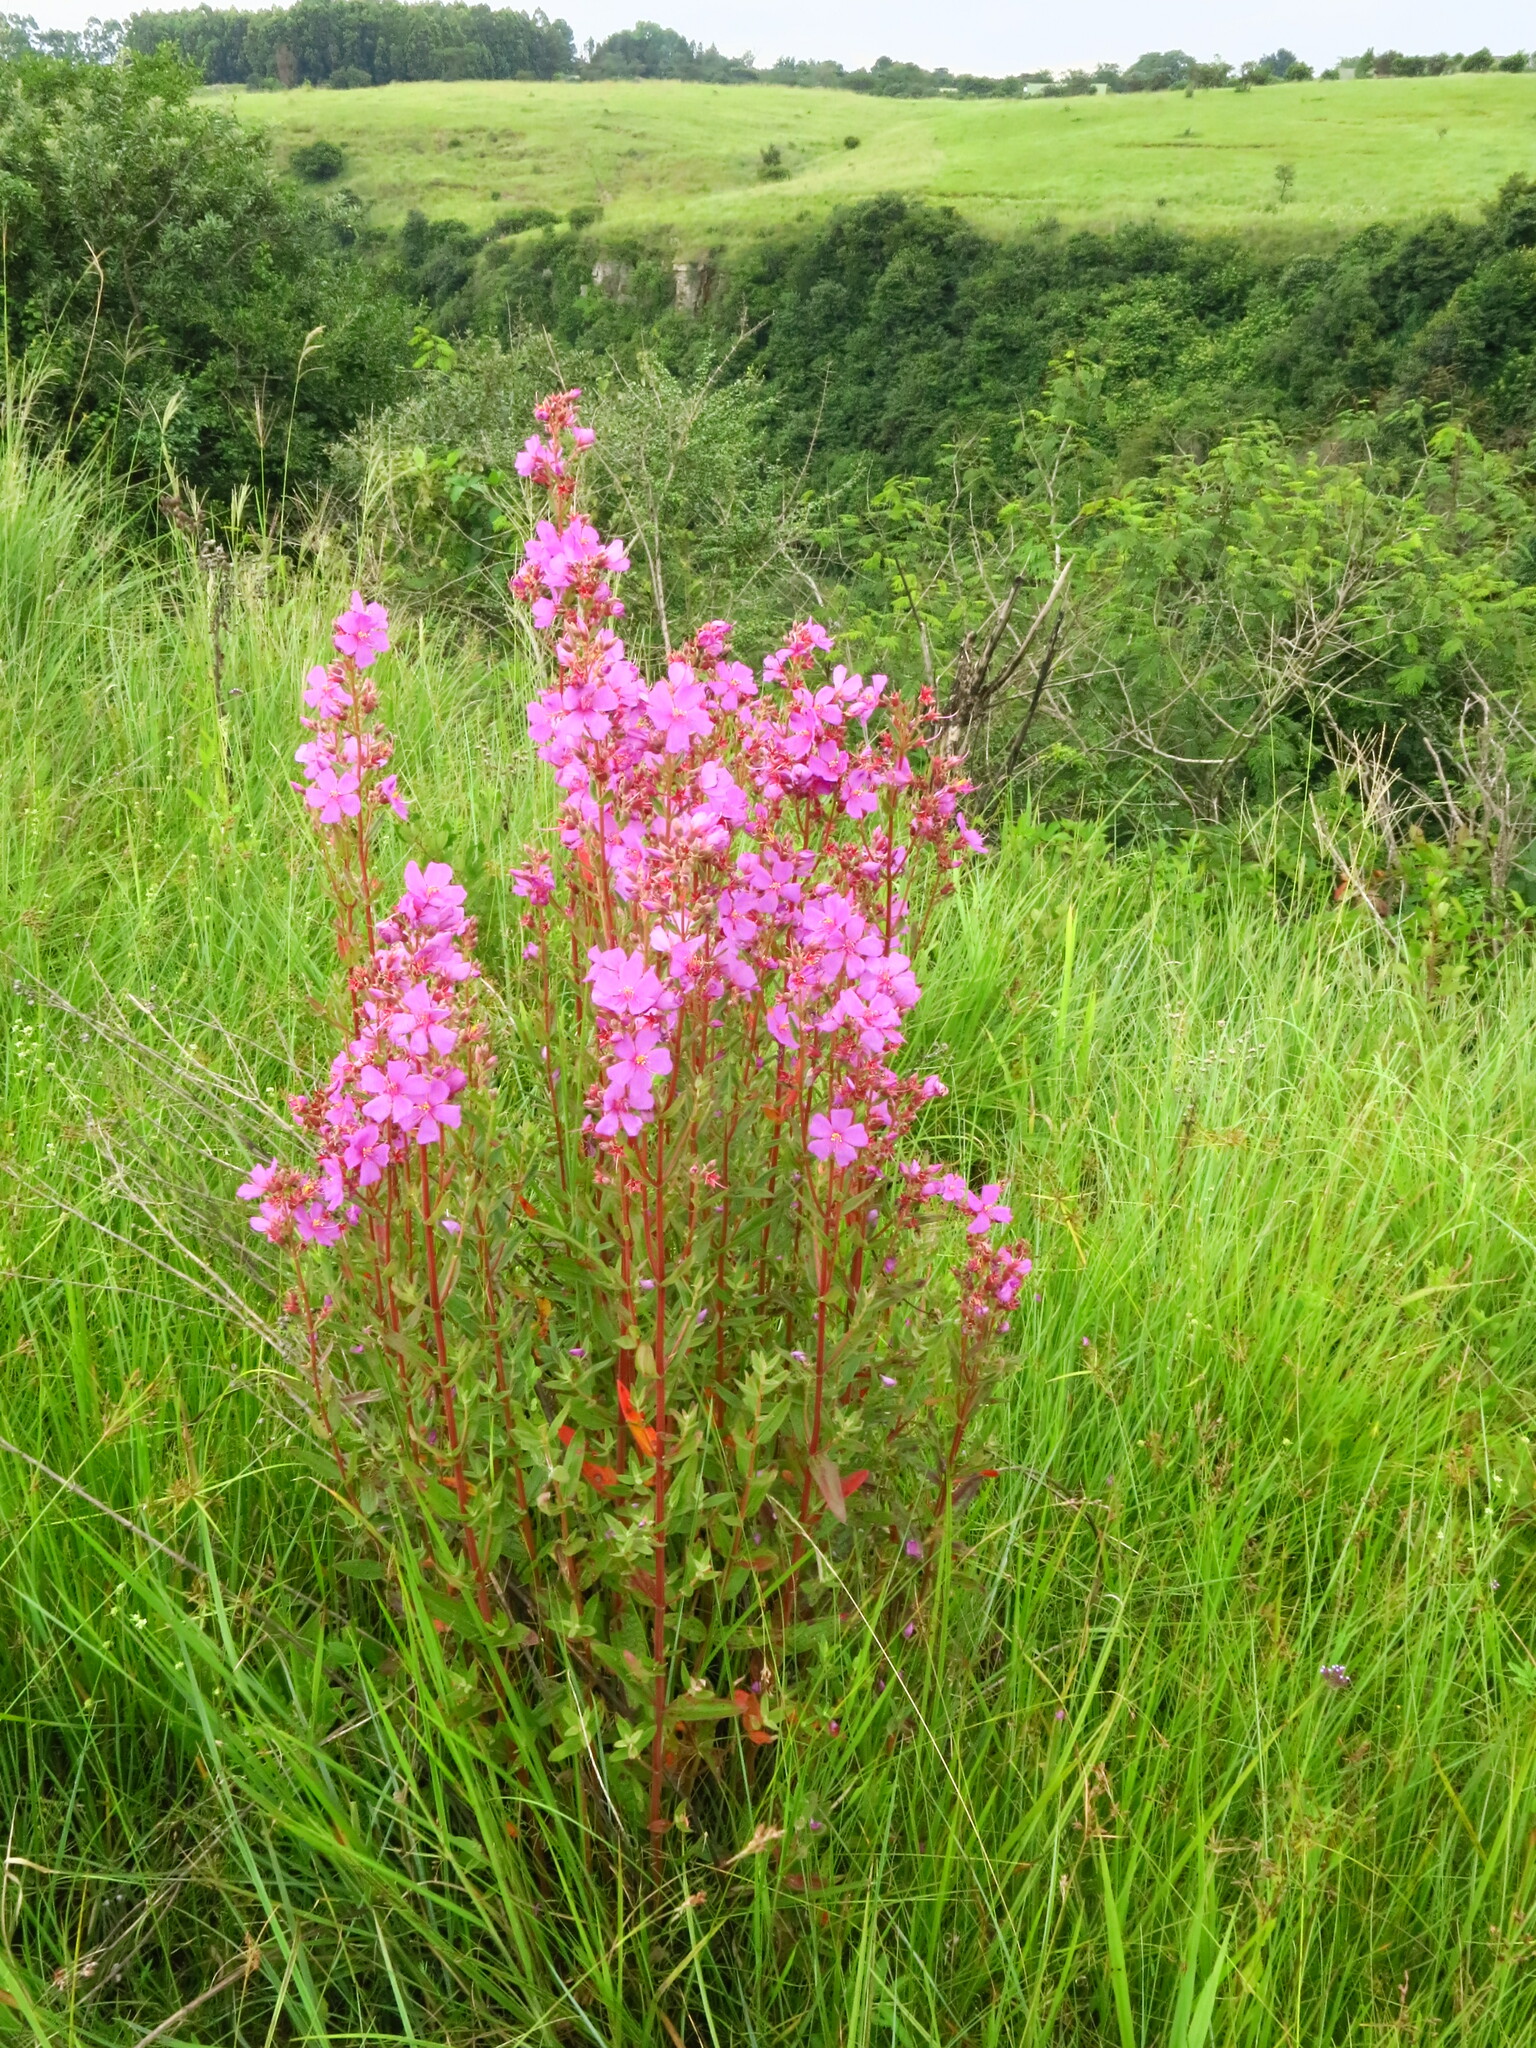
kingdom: Plantae
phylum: Tracheophyta
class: Magnoliopsida
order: Myrtales
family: Melastomataceae
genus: Argyrella
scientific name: Argyrella canescens
